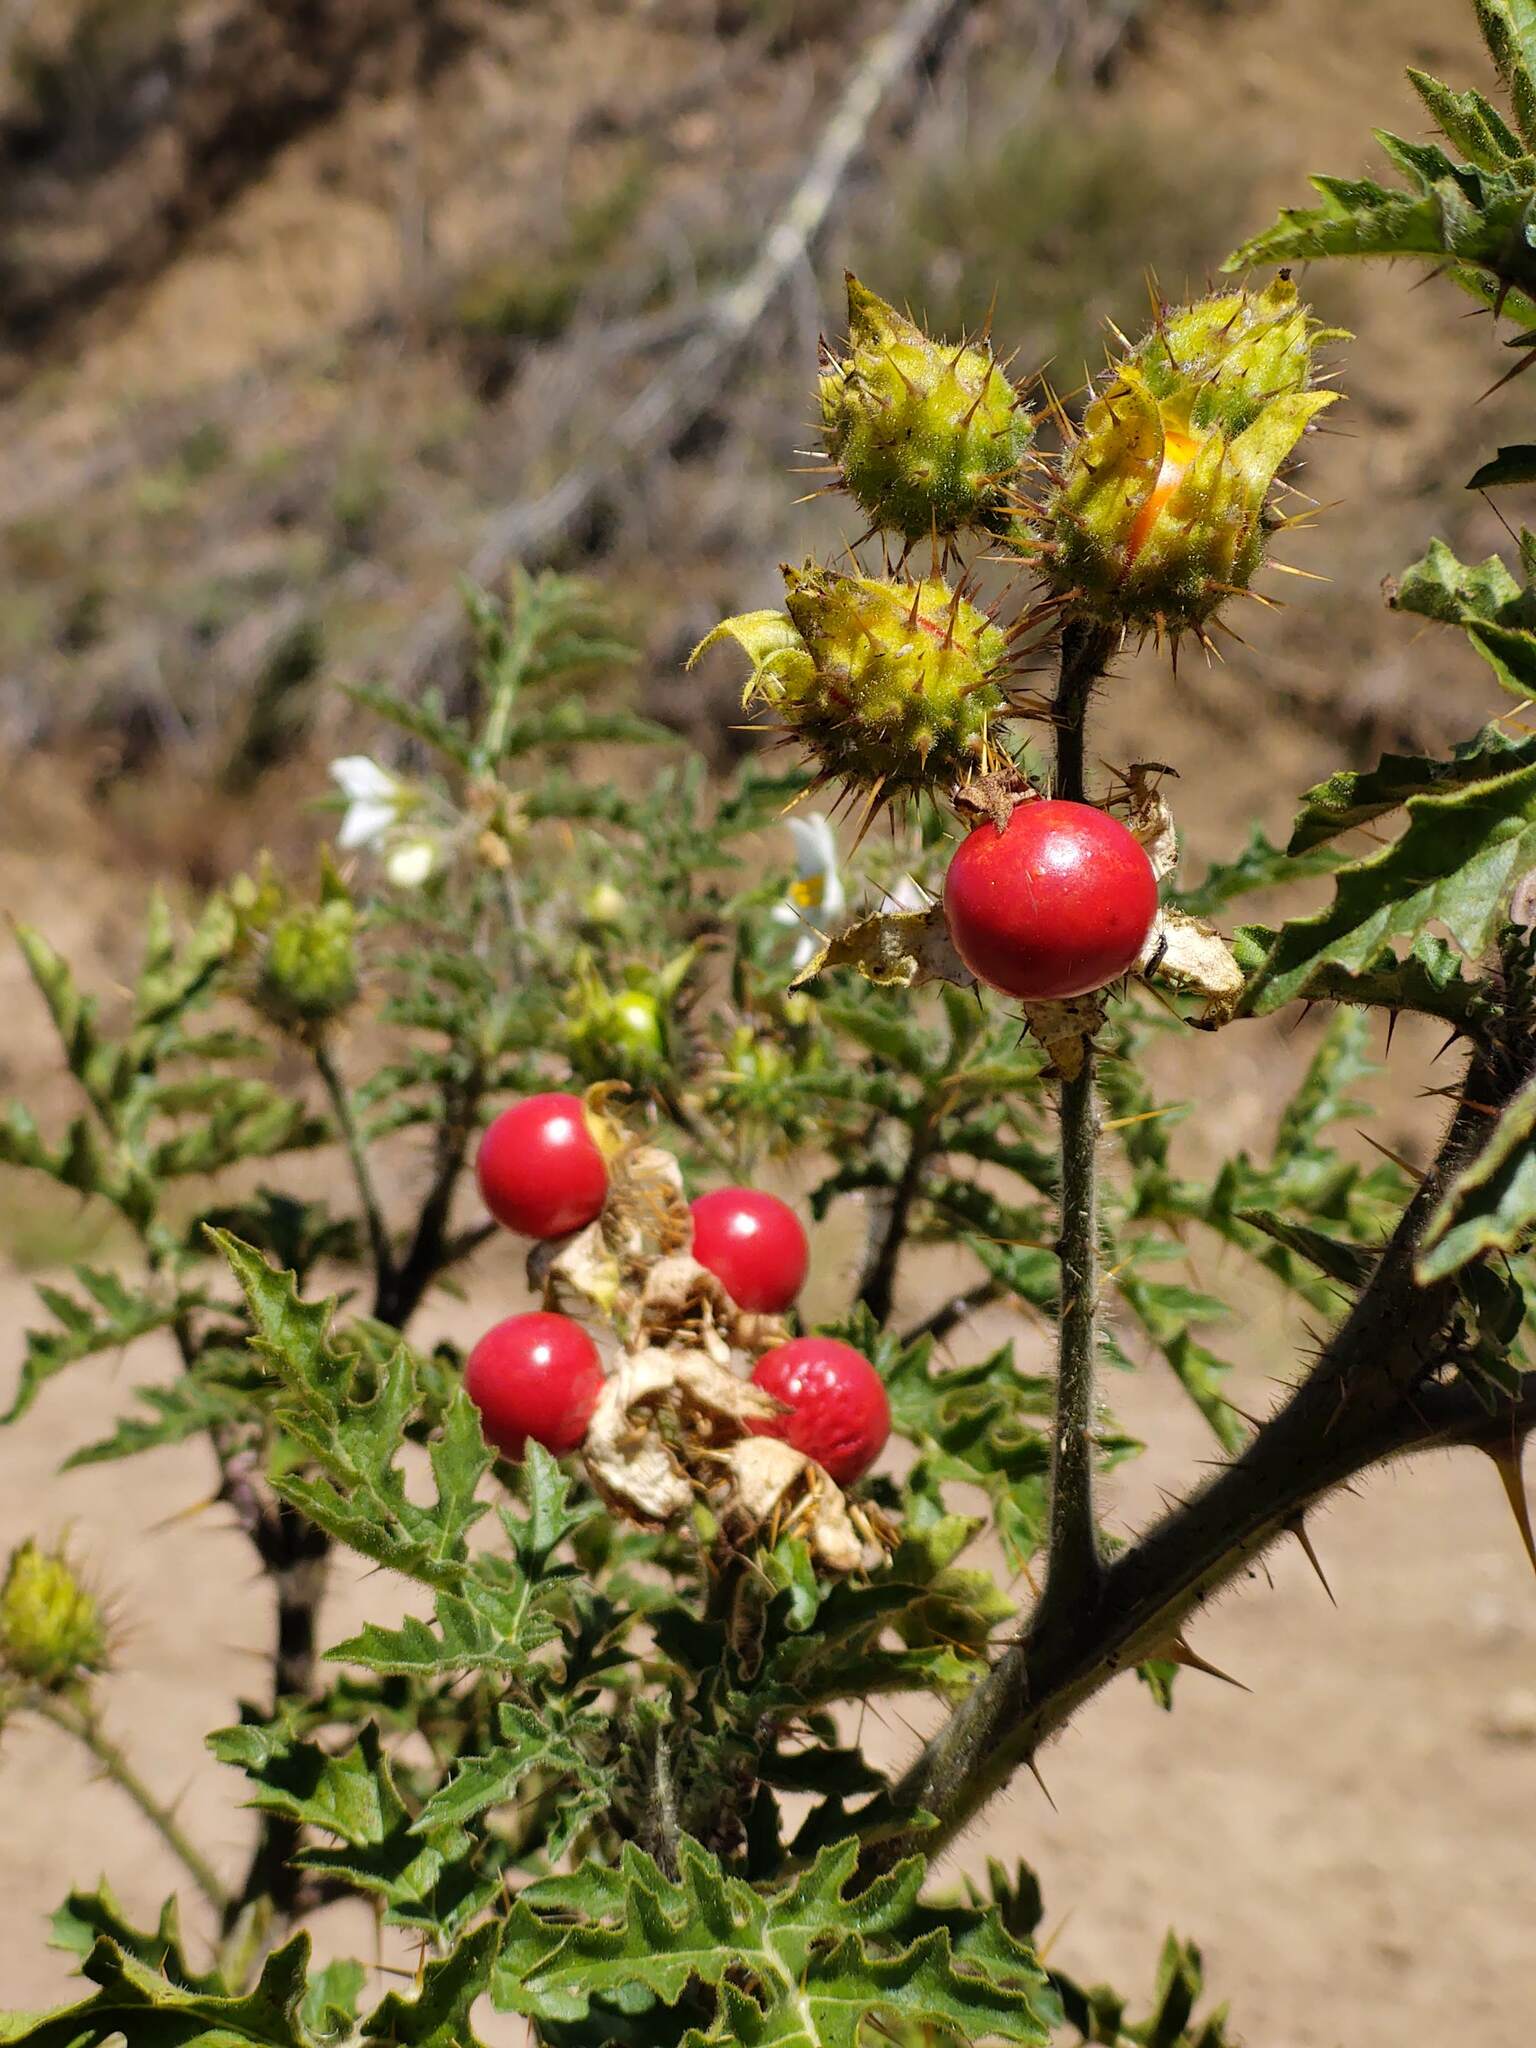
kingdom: Plantae
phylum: Tracheophyta
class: Magnoliopsida
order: Solanales
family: Solanaceae
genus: Solanum
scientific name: Solanum sisymbriifolium
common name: Red buffalo-bur
